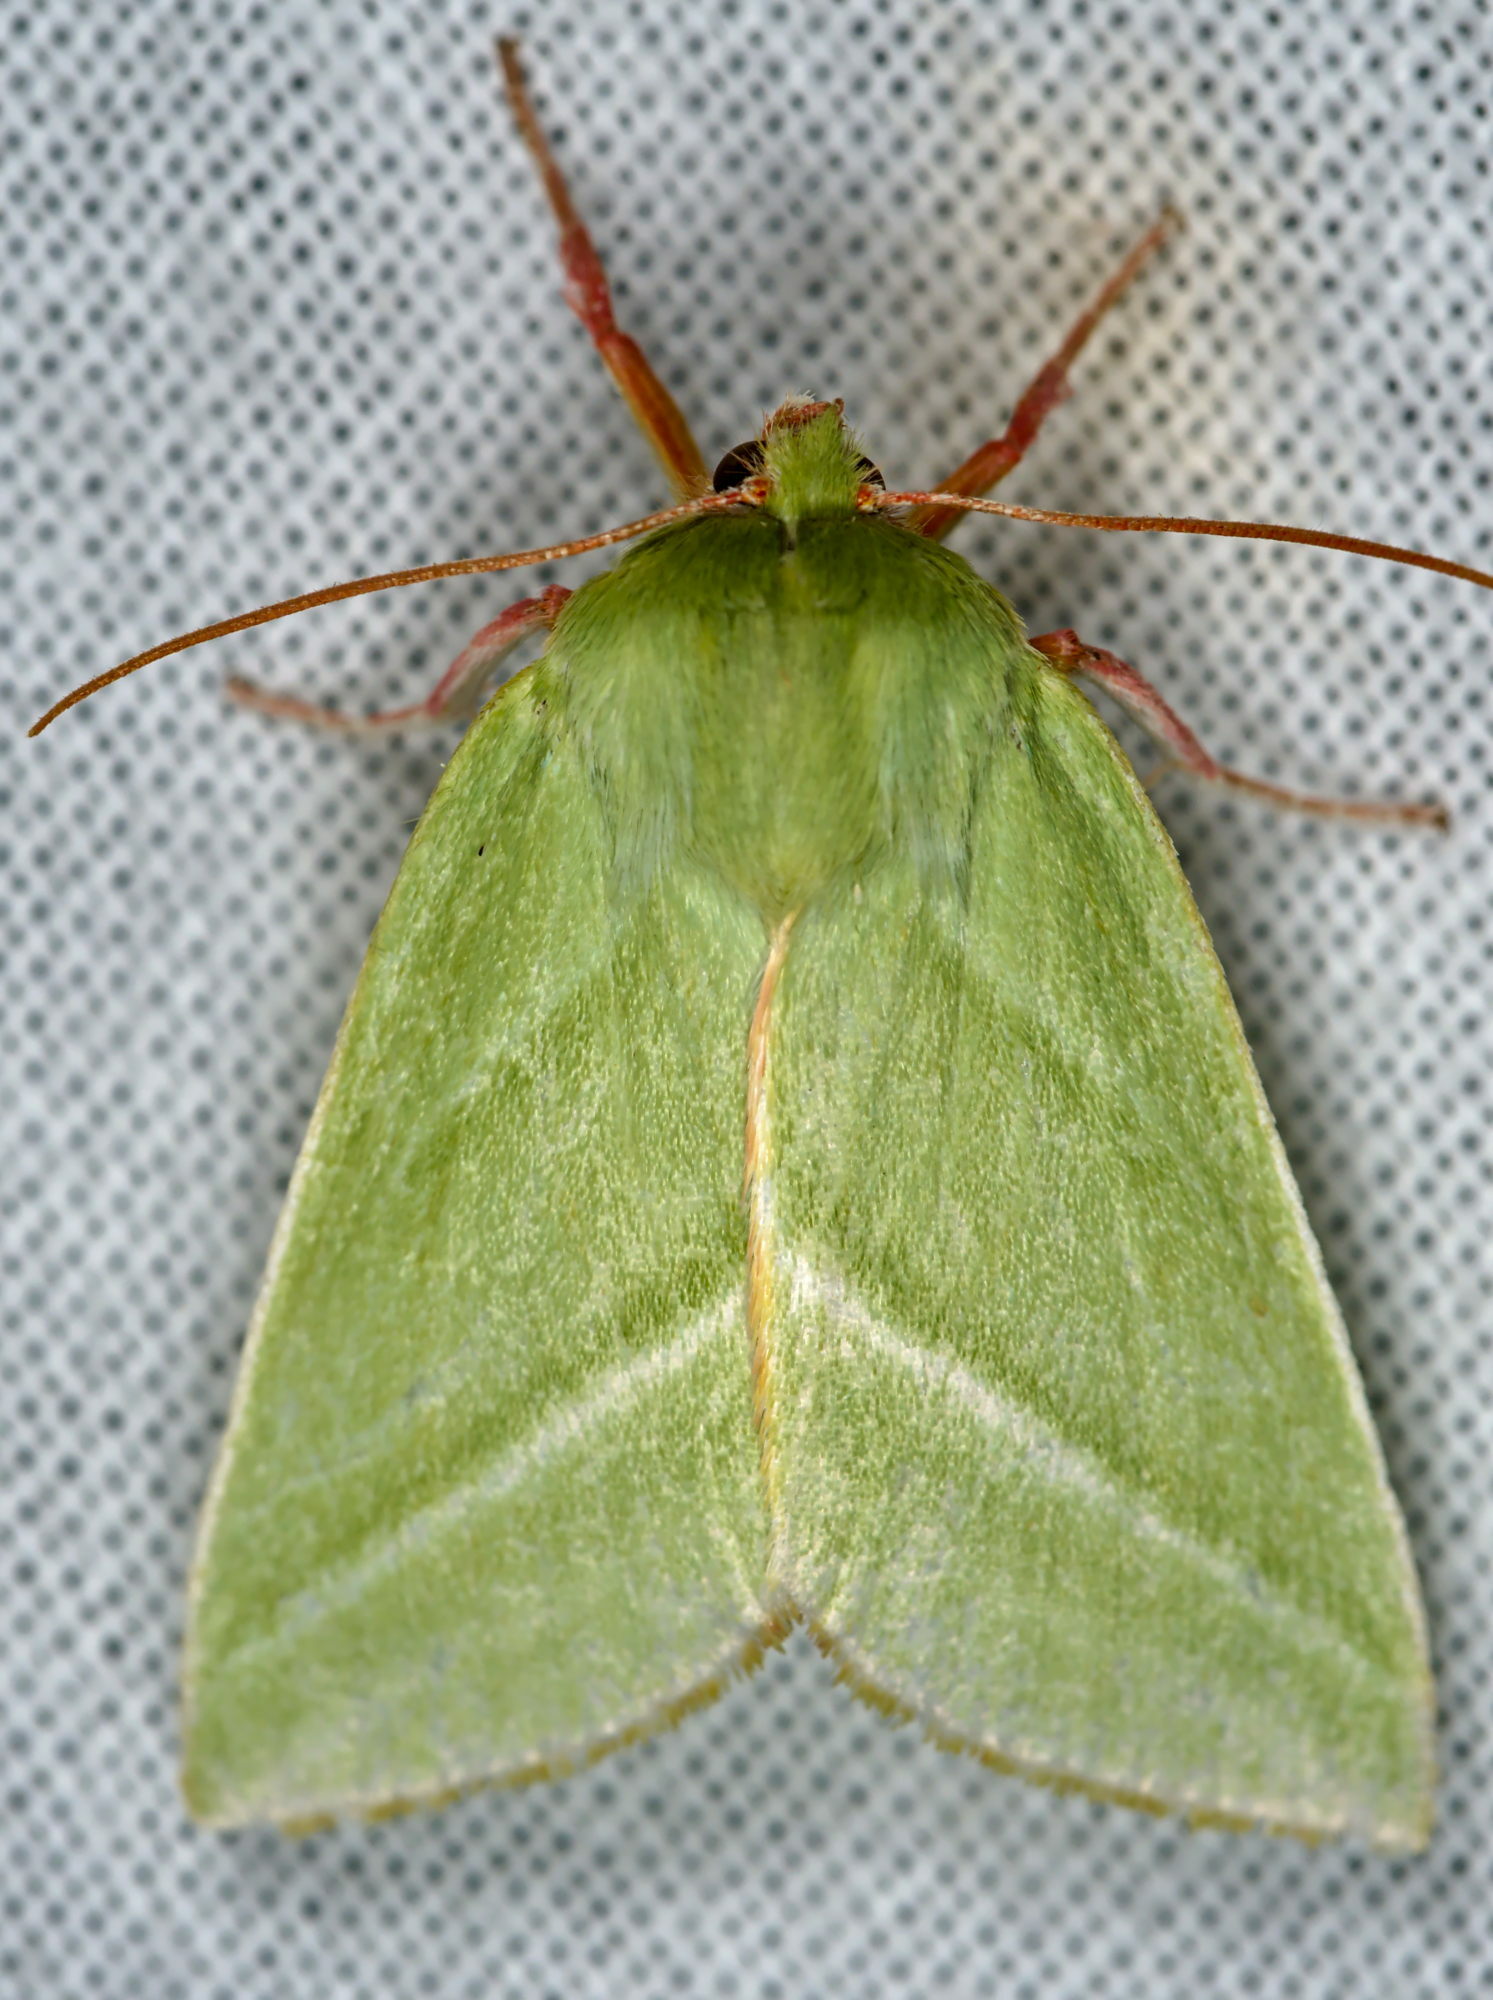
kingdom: Animalia
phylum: Arthropoda
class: Insecta
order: Lepidoptera
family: Nolidae
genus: Pseudoips
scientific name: Pseudoips prasinana
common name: Green silver-lines
